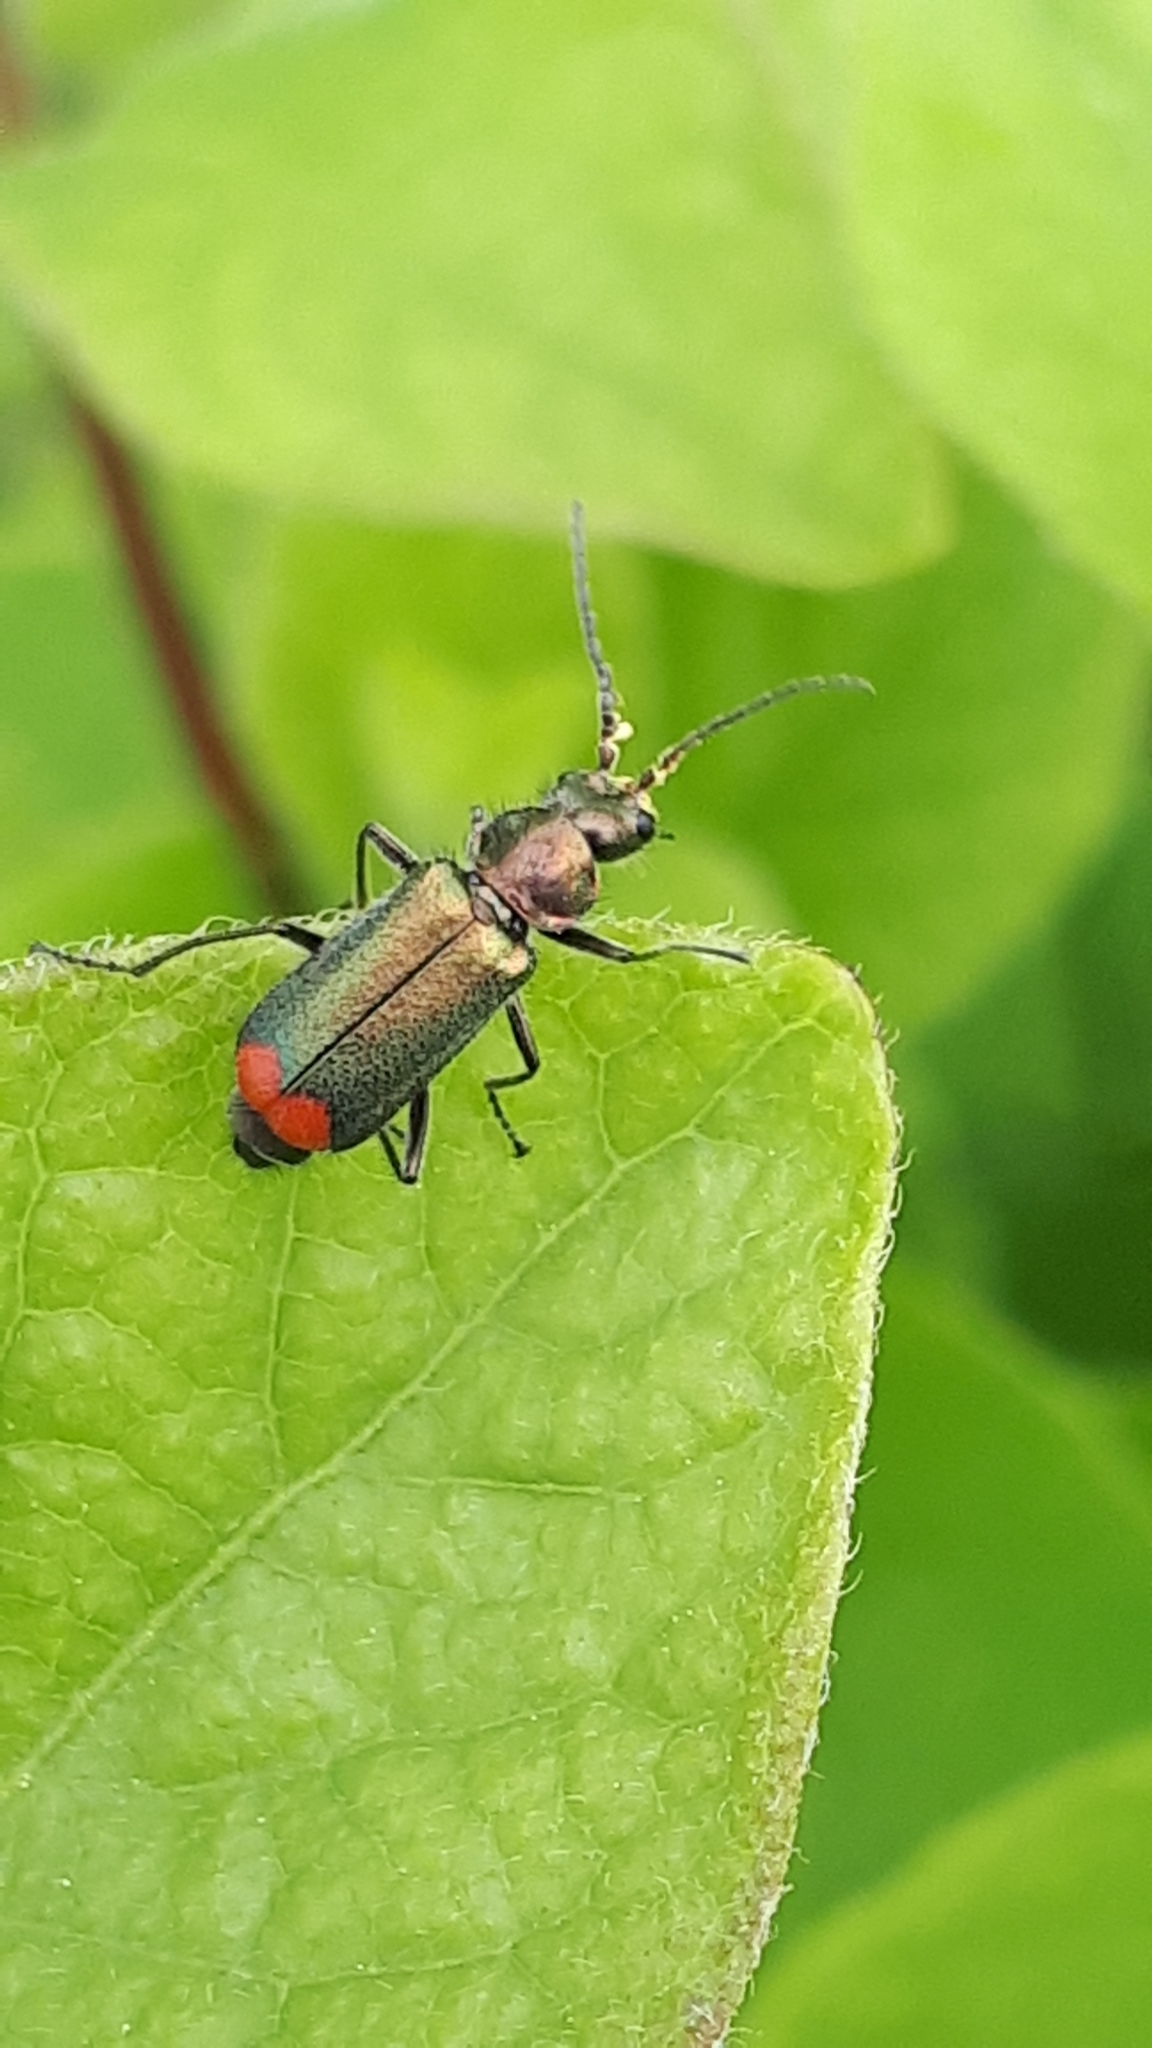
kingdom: Animalia
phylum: Arthropoda
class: Insecta
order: Coleoptera
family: Melyridae
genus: Malachius
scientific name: Malachius bipustulatus
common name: Malachite beetle
